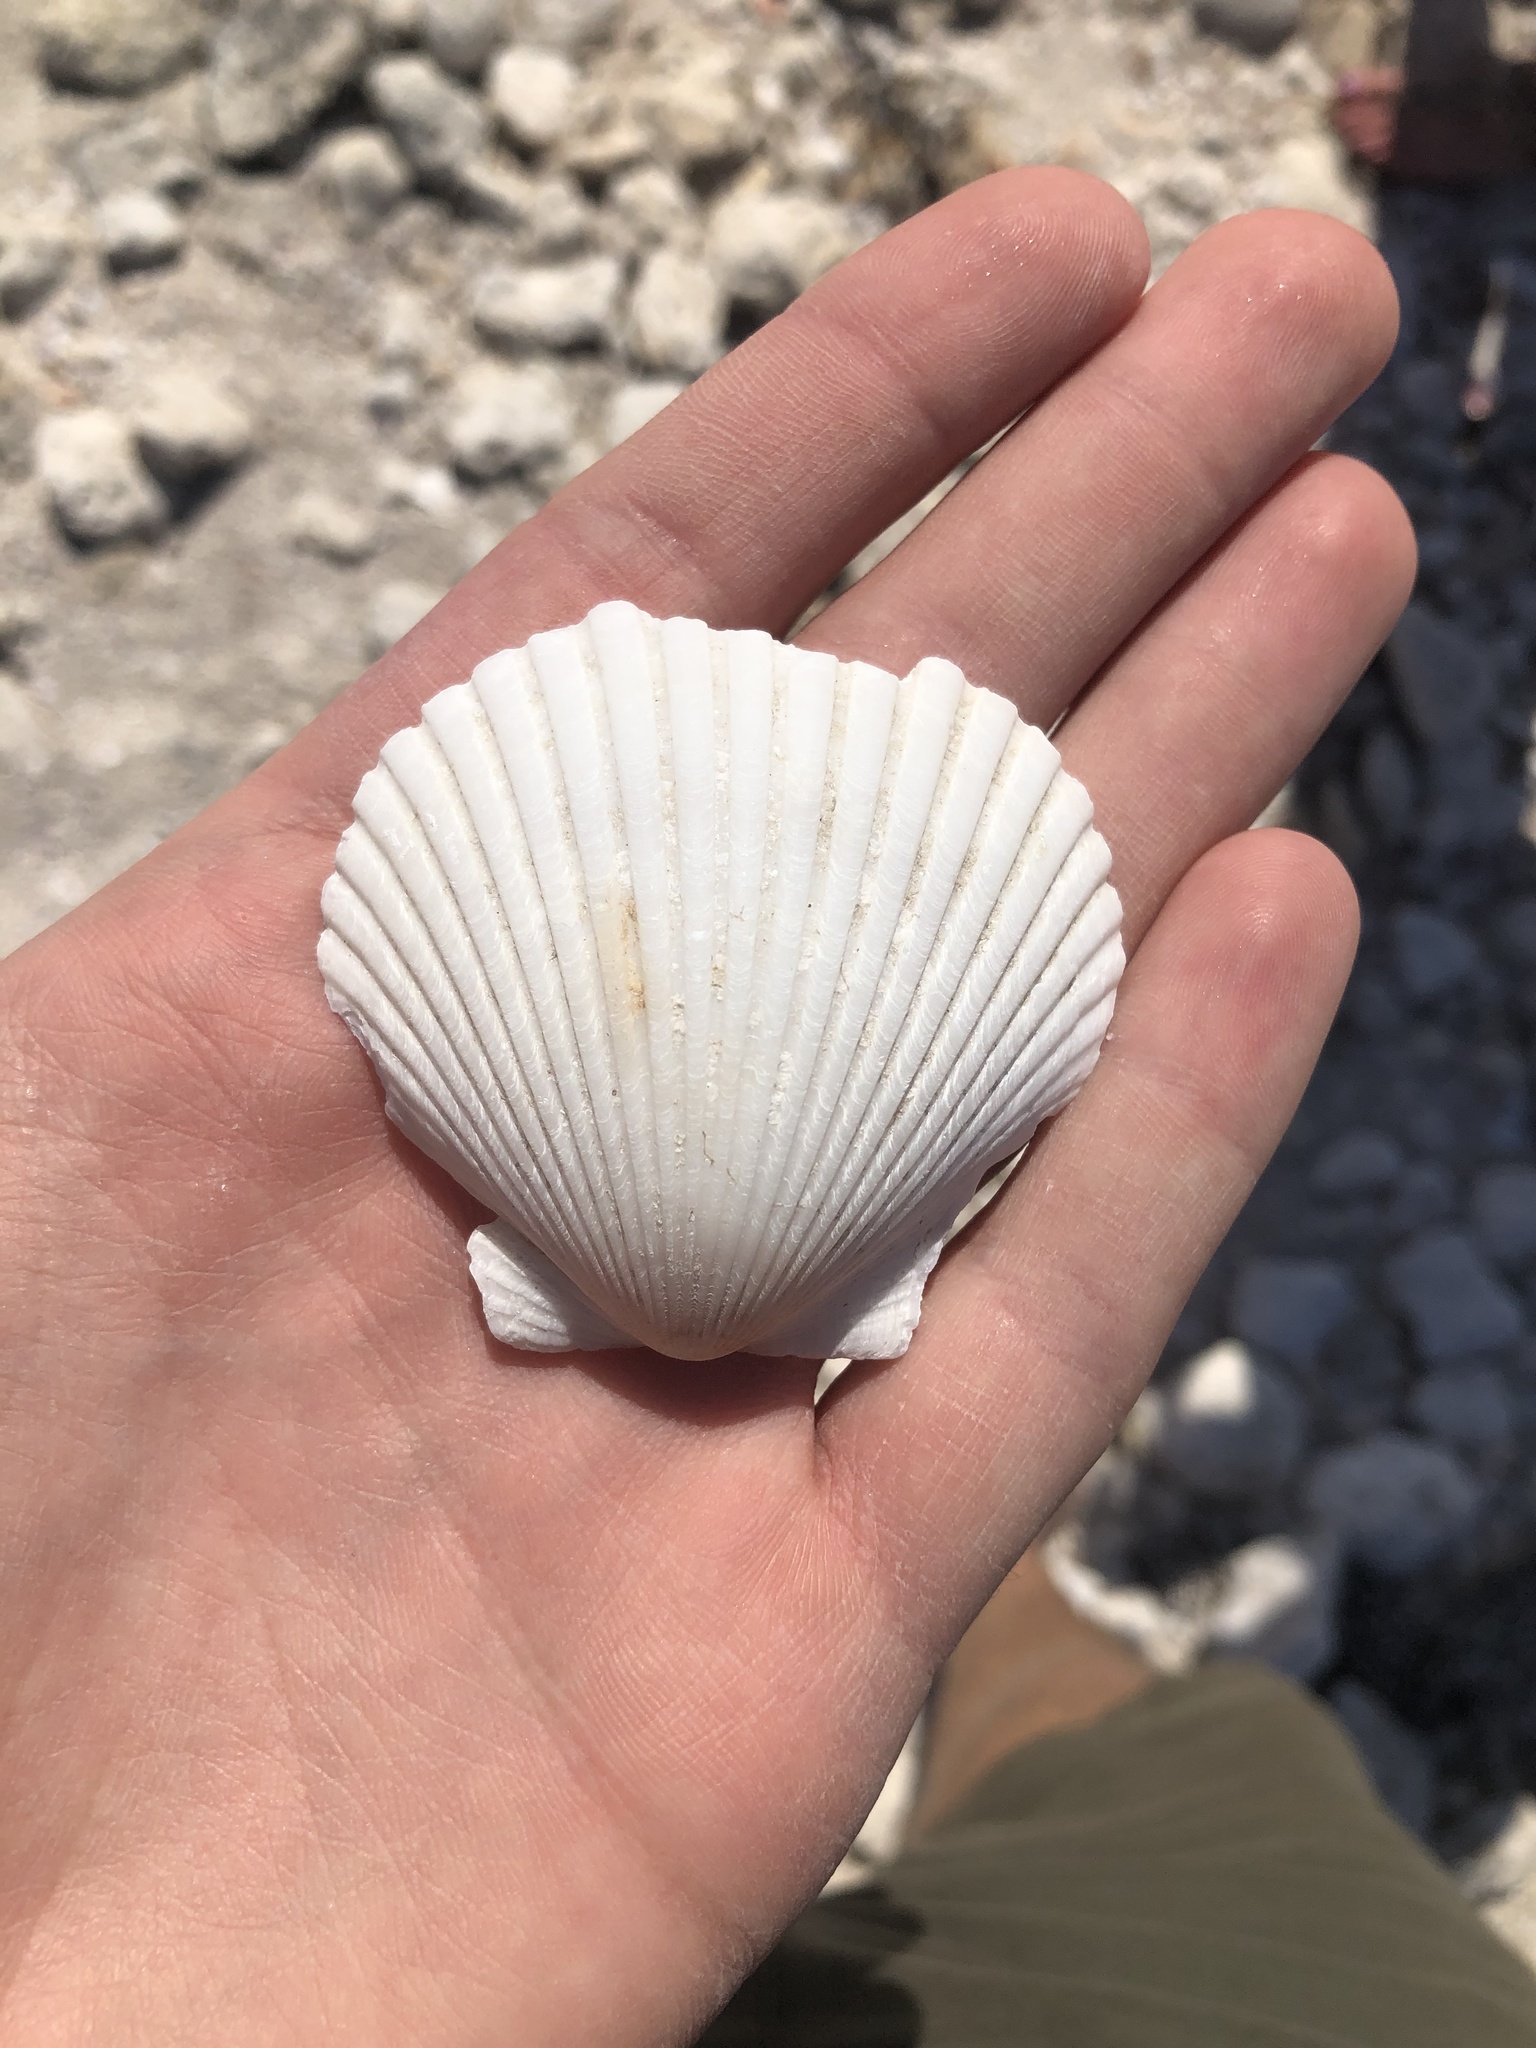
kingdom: Animalia
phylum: Mollusca
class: Bivalvia
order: Pectinida
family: Pectinidae
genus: Argopecten
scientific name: Argopecten irradians
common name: Atlantic bay scallop
